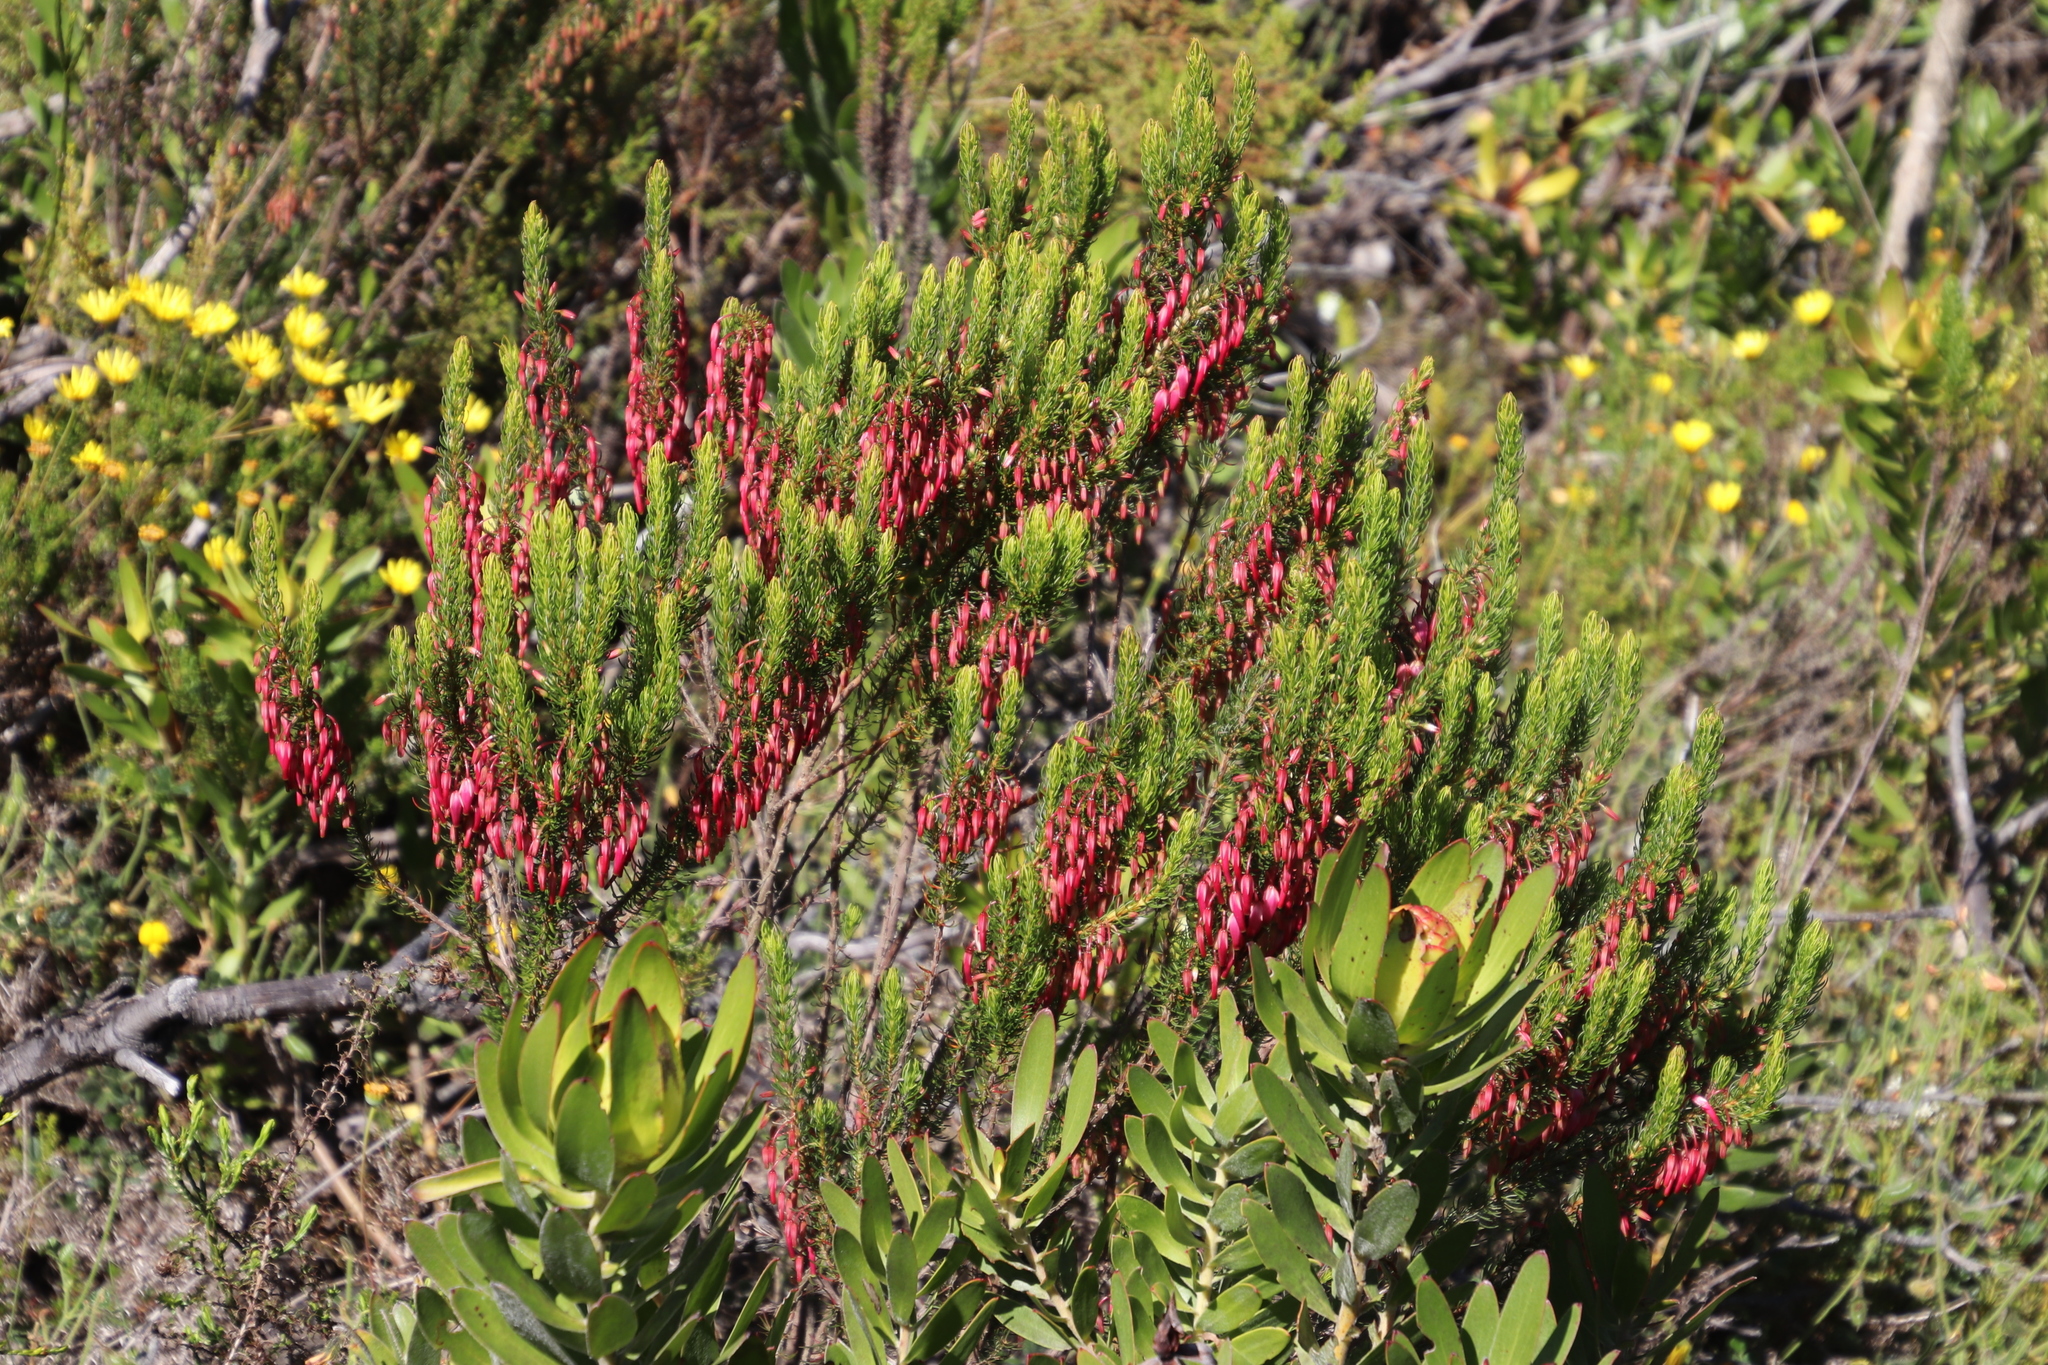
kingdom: Plantae
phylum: Tracheophyta
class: Magnoliopsida
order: Ericales
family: Ericaceae
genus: Erica
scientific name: Erica plukenetii
